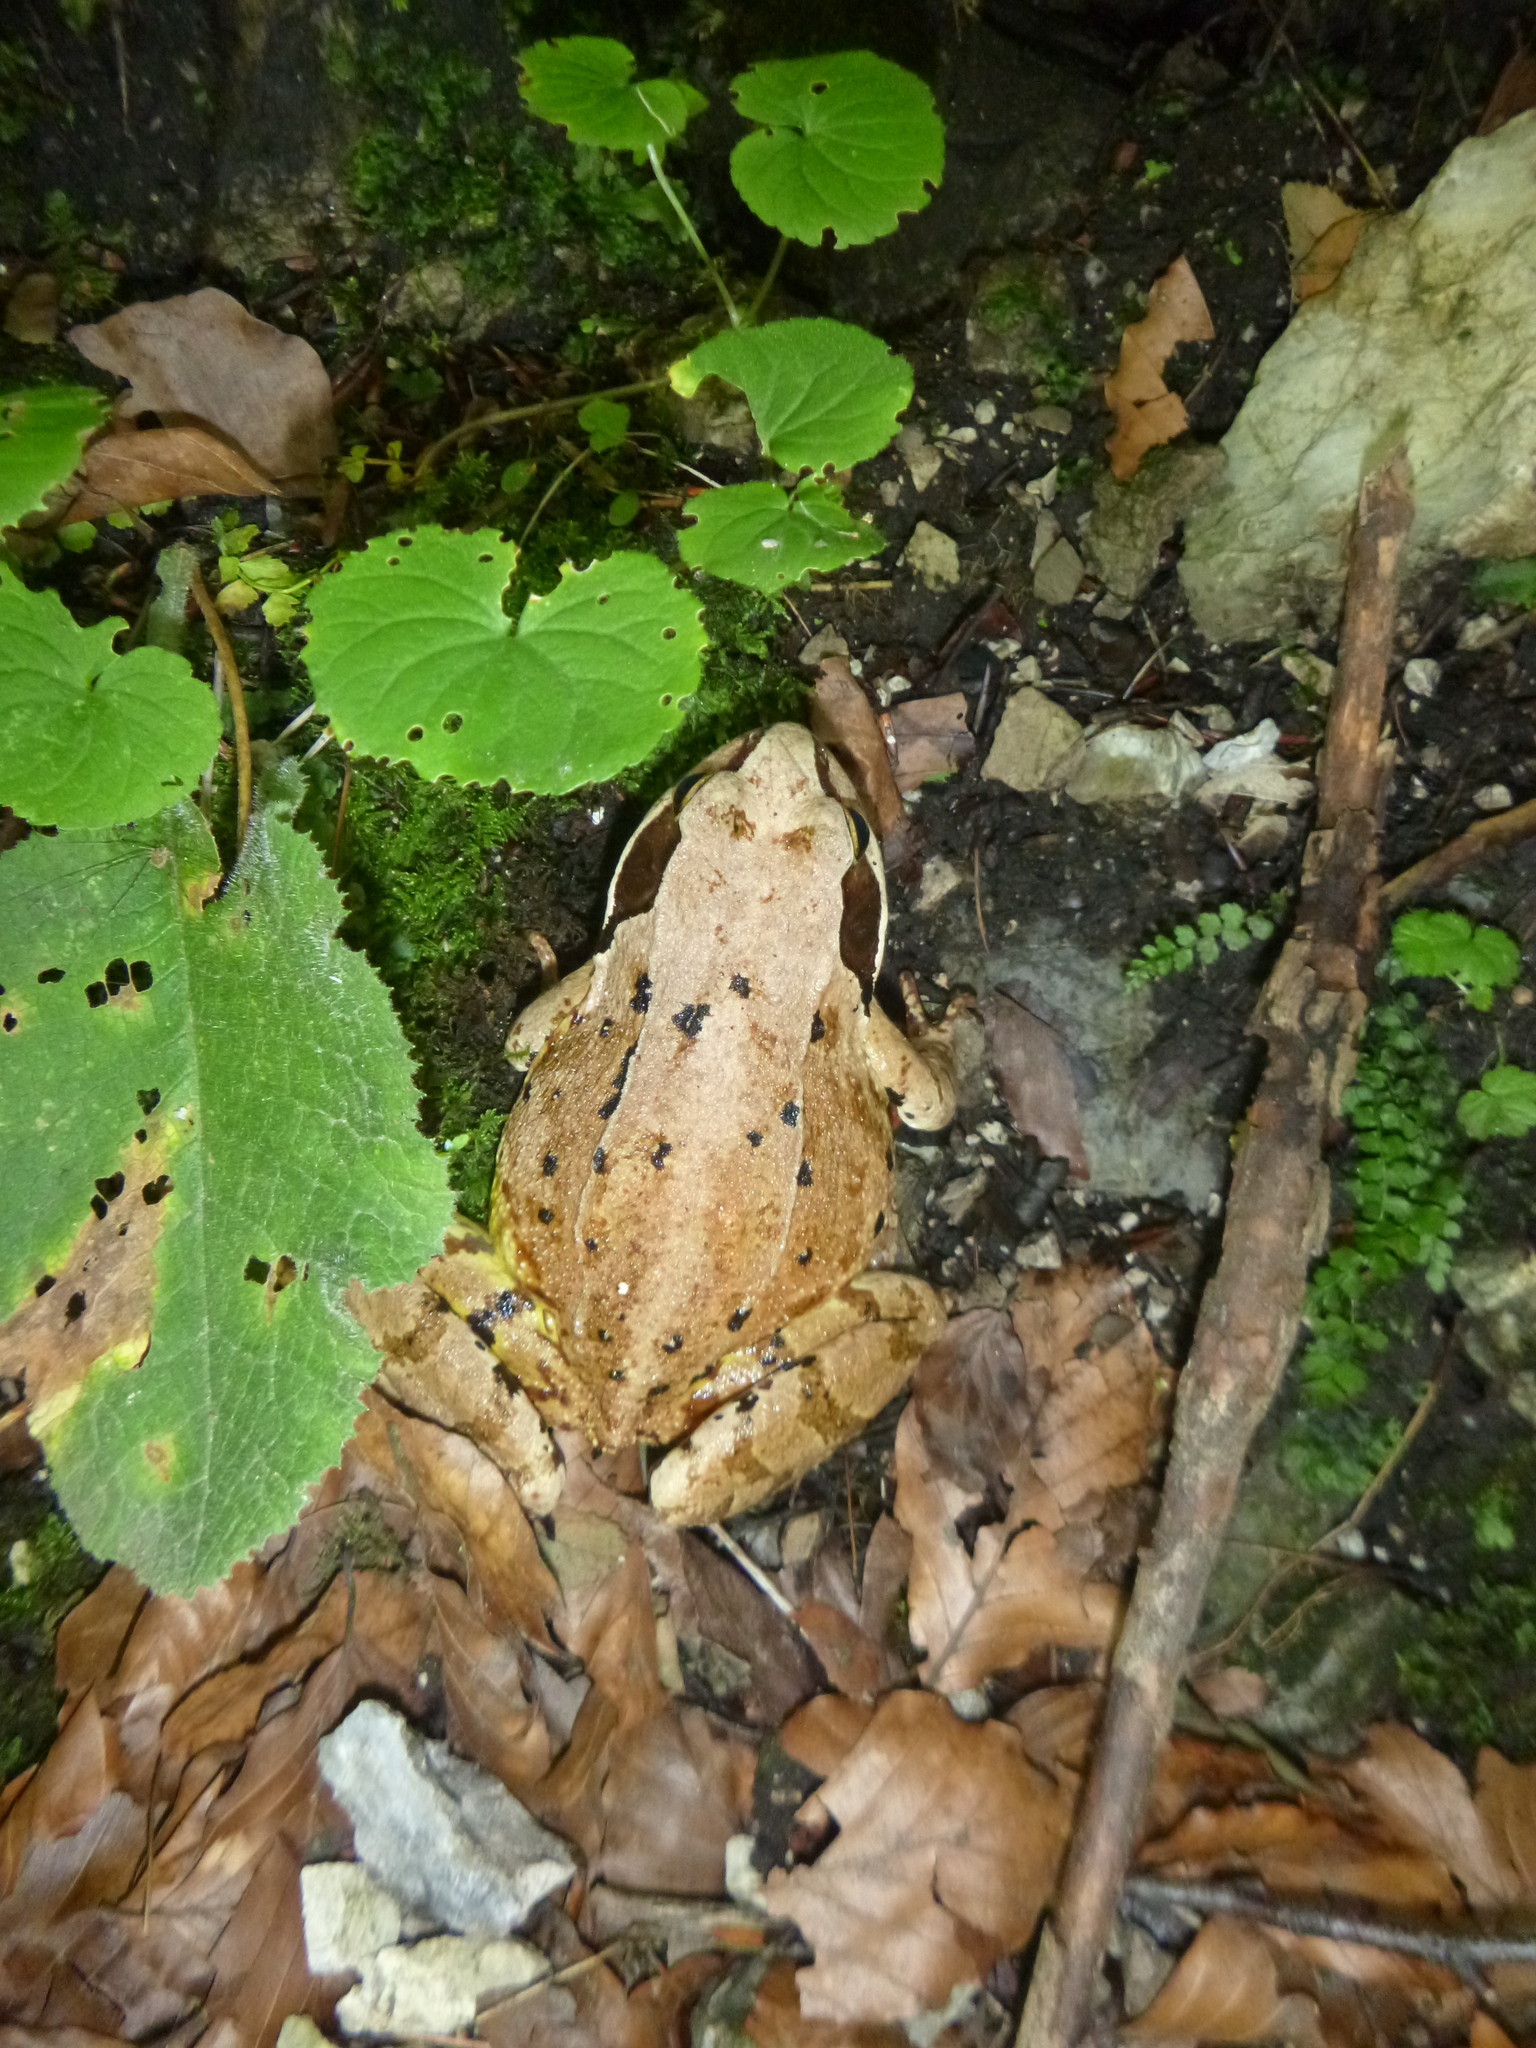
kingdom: Animalia
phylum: Chordata
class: Amphibia
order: Anura
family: Ranidae
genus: Rana
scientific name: Rana temporaria
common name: Common frog
